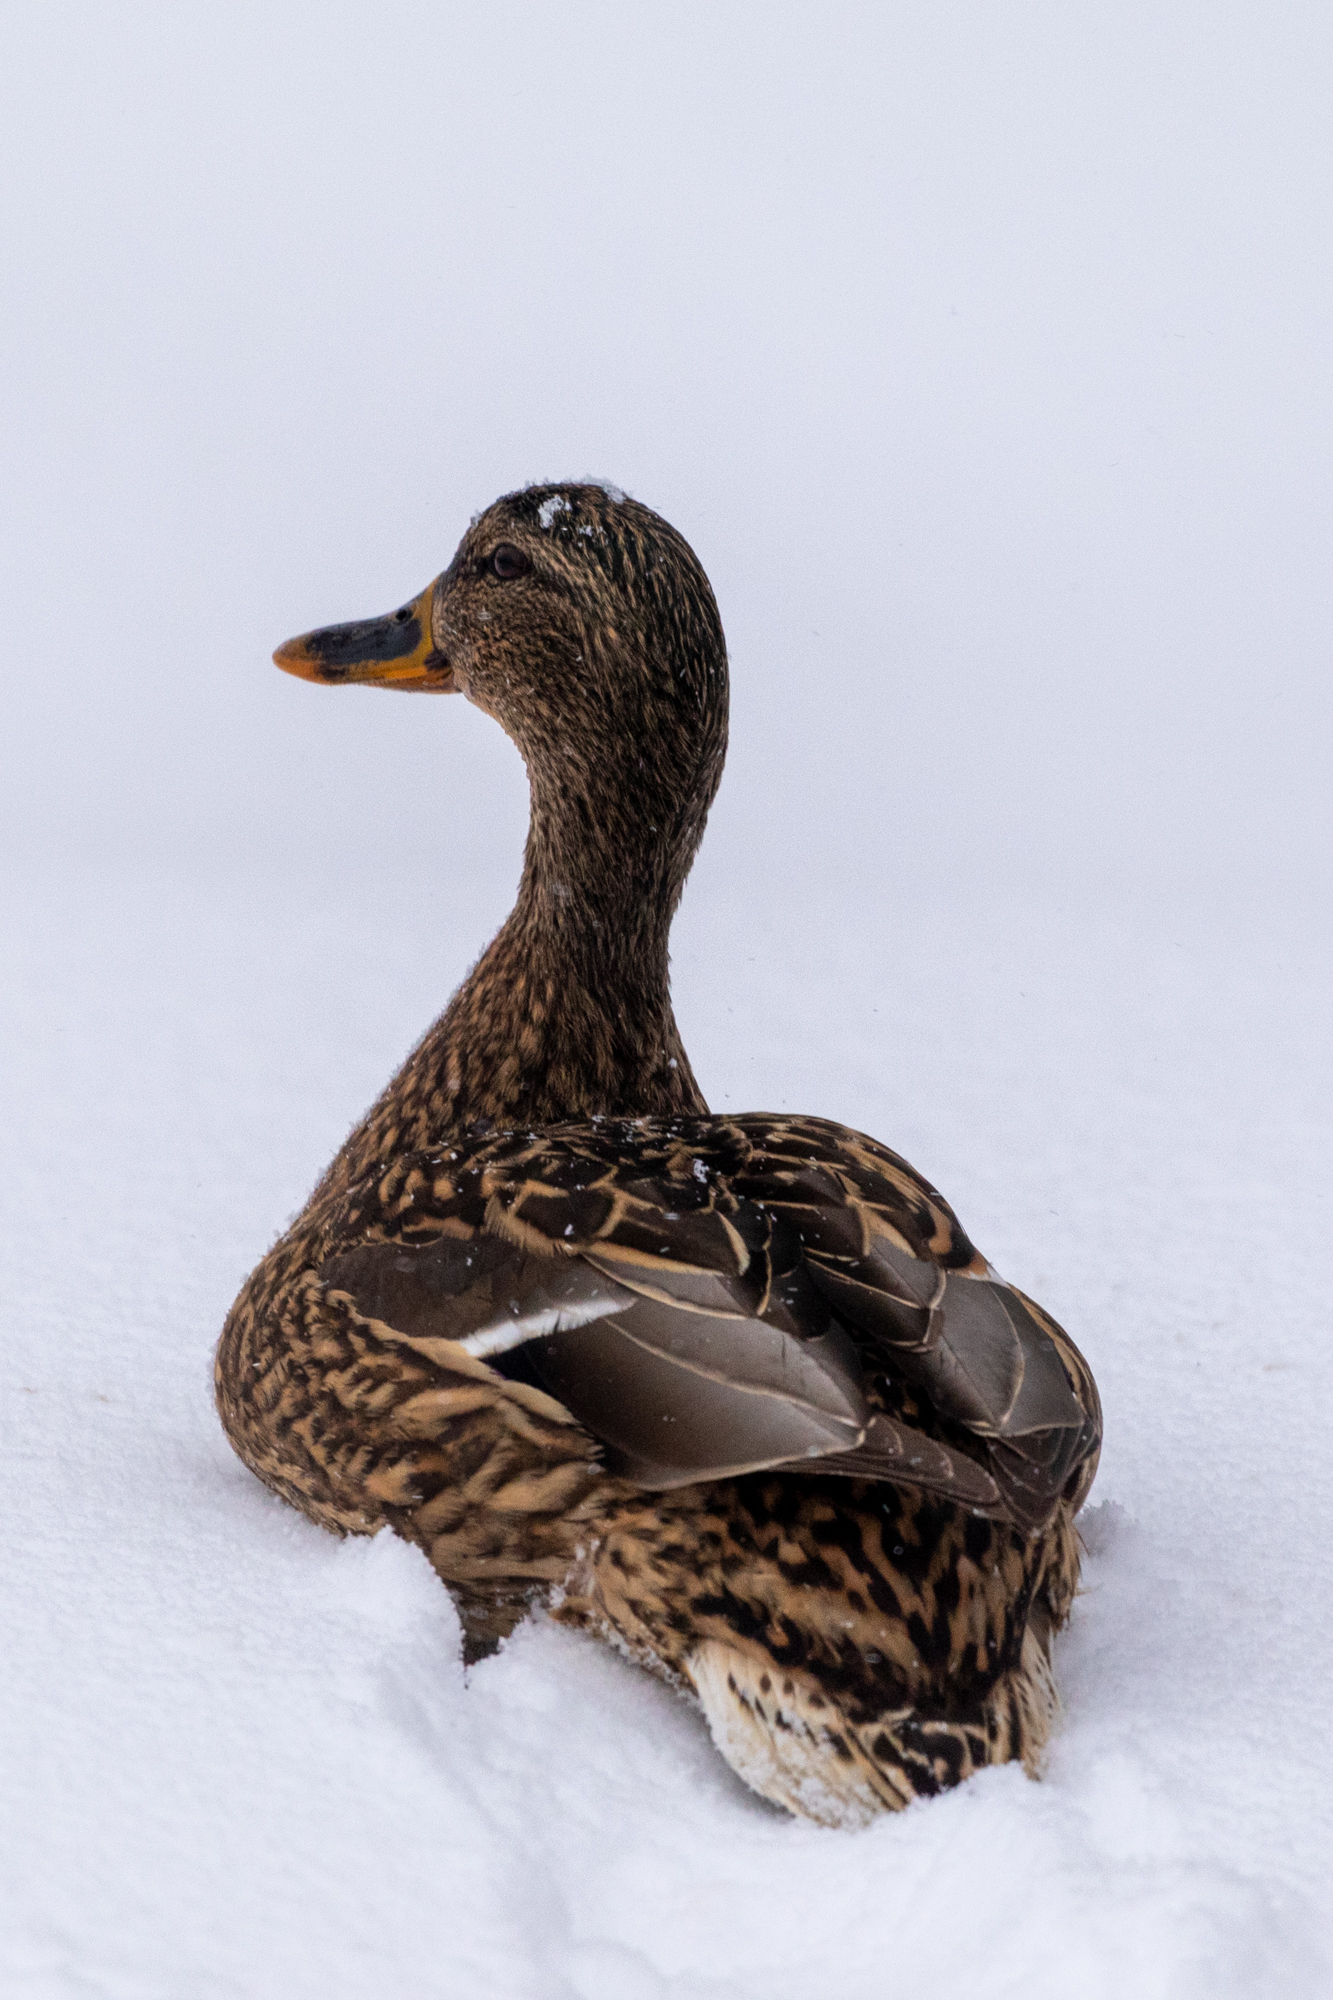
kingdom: Animalia
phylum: Chordata
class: Aves
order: Anseriformes
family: Anatidae
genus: Anas
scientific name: Anas platyrhynchos
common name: Mallard
